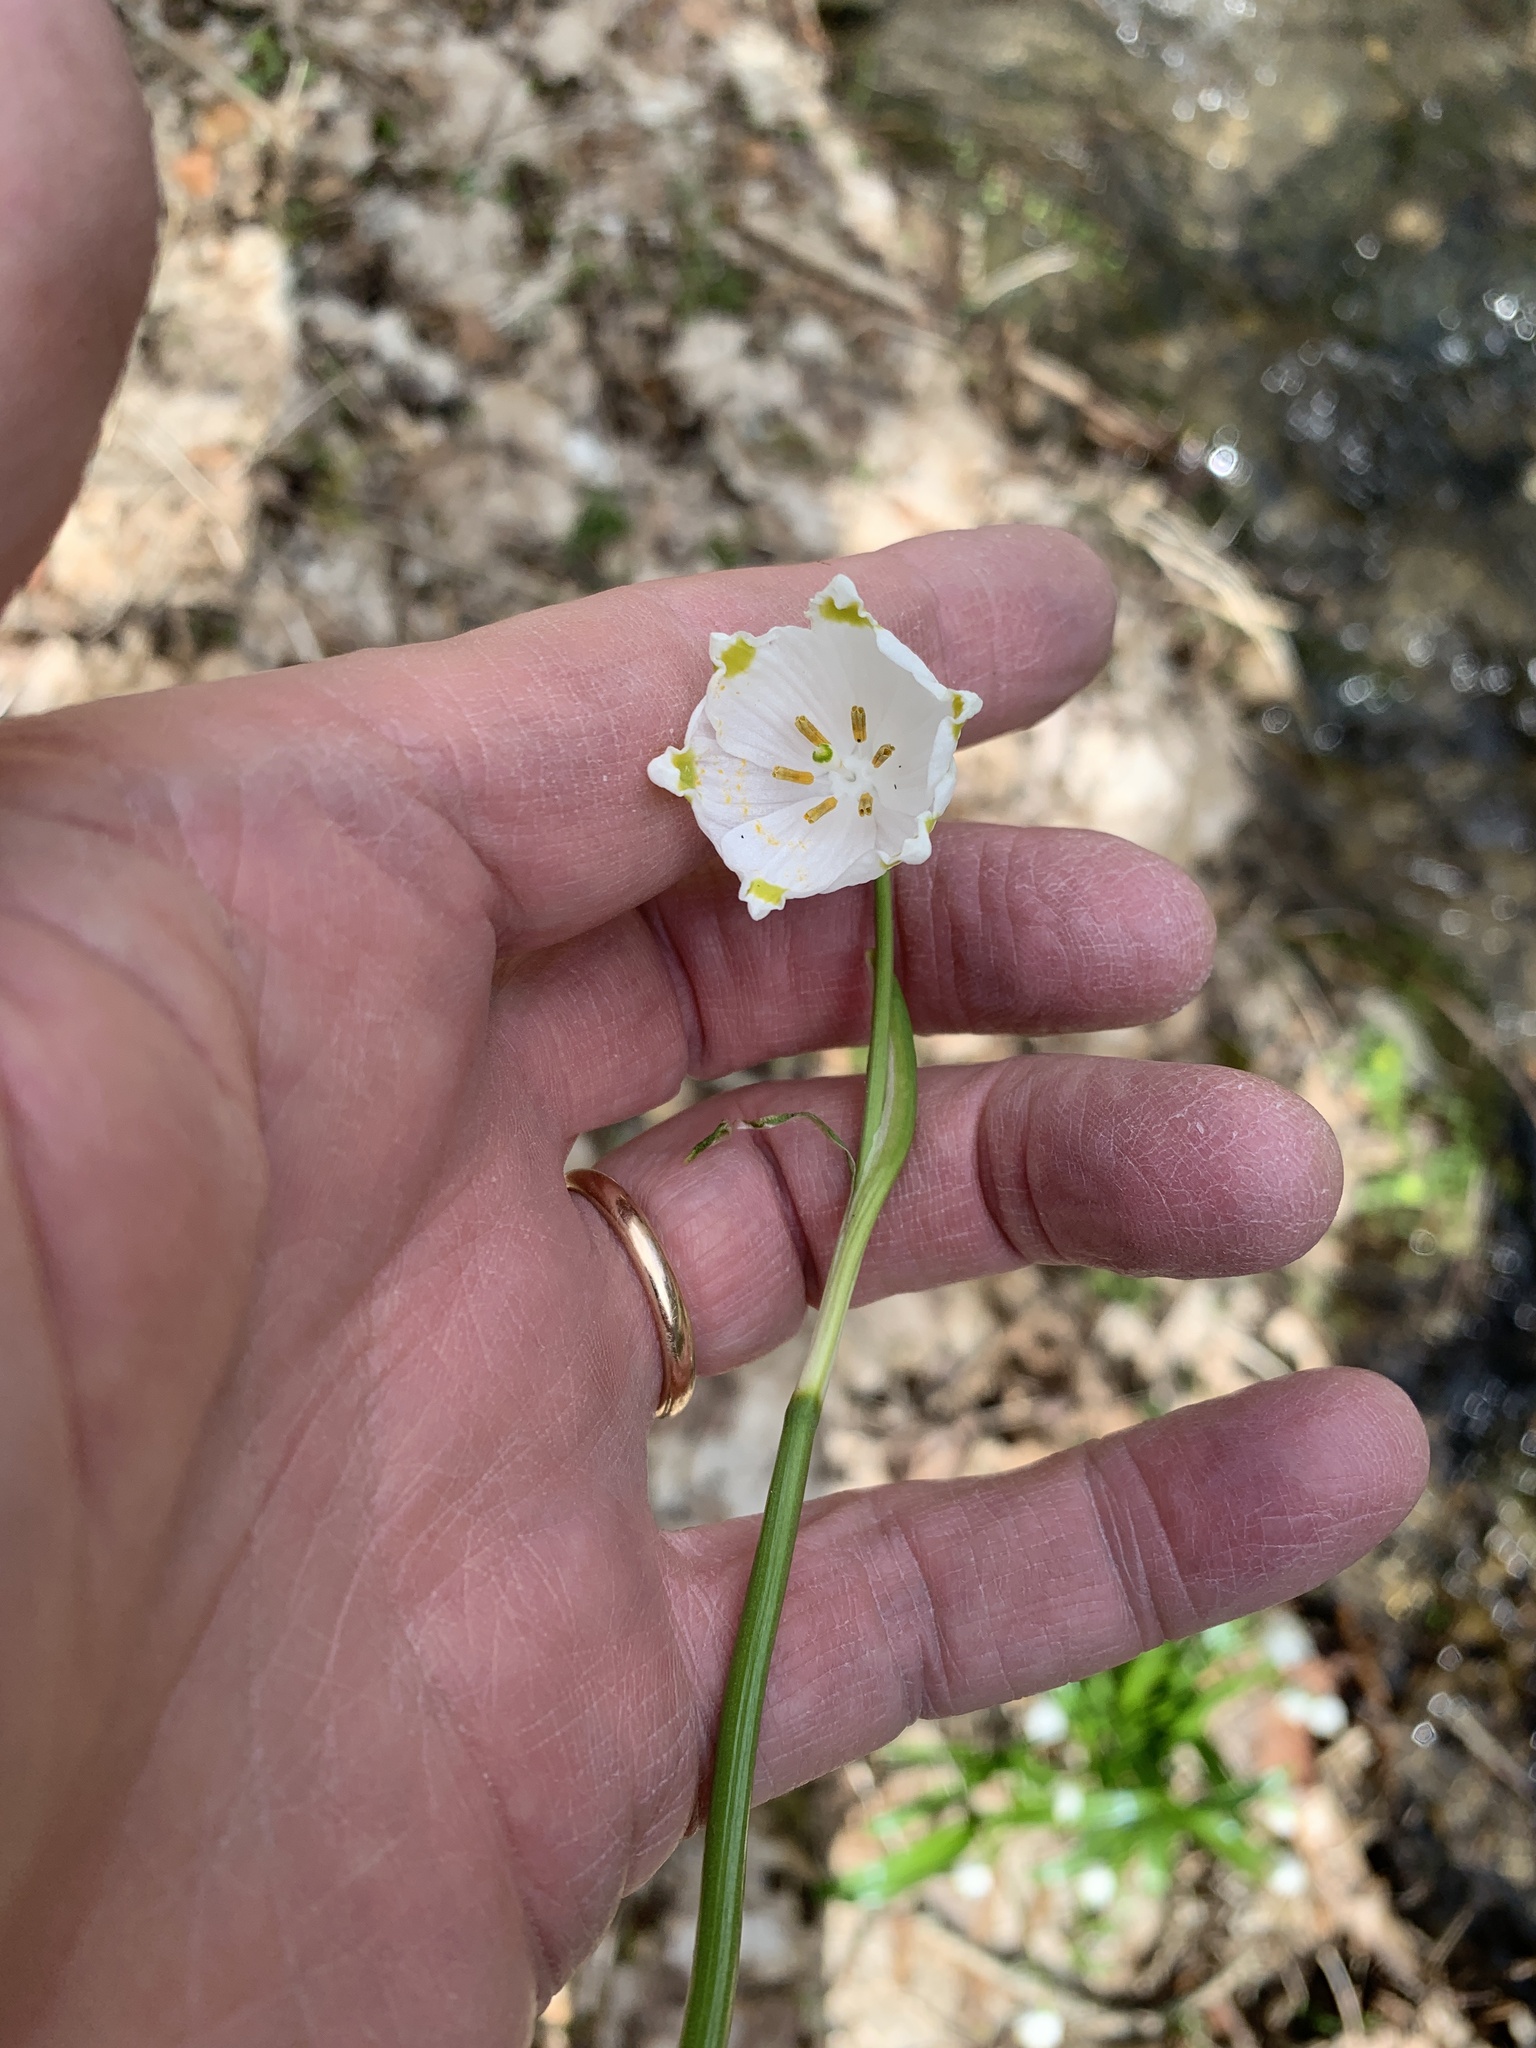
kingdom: Plantae
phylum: Tracheophyta
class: Liliopsida
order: Asparagales
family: Amaryllidaceae
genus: Leucojum
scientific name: Leucojum vernum
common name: Spring snowflake
